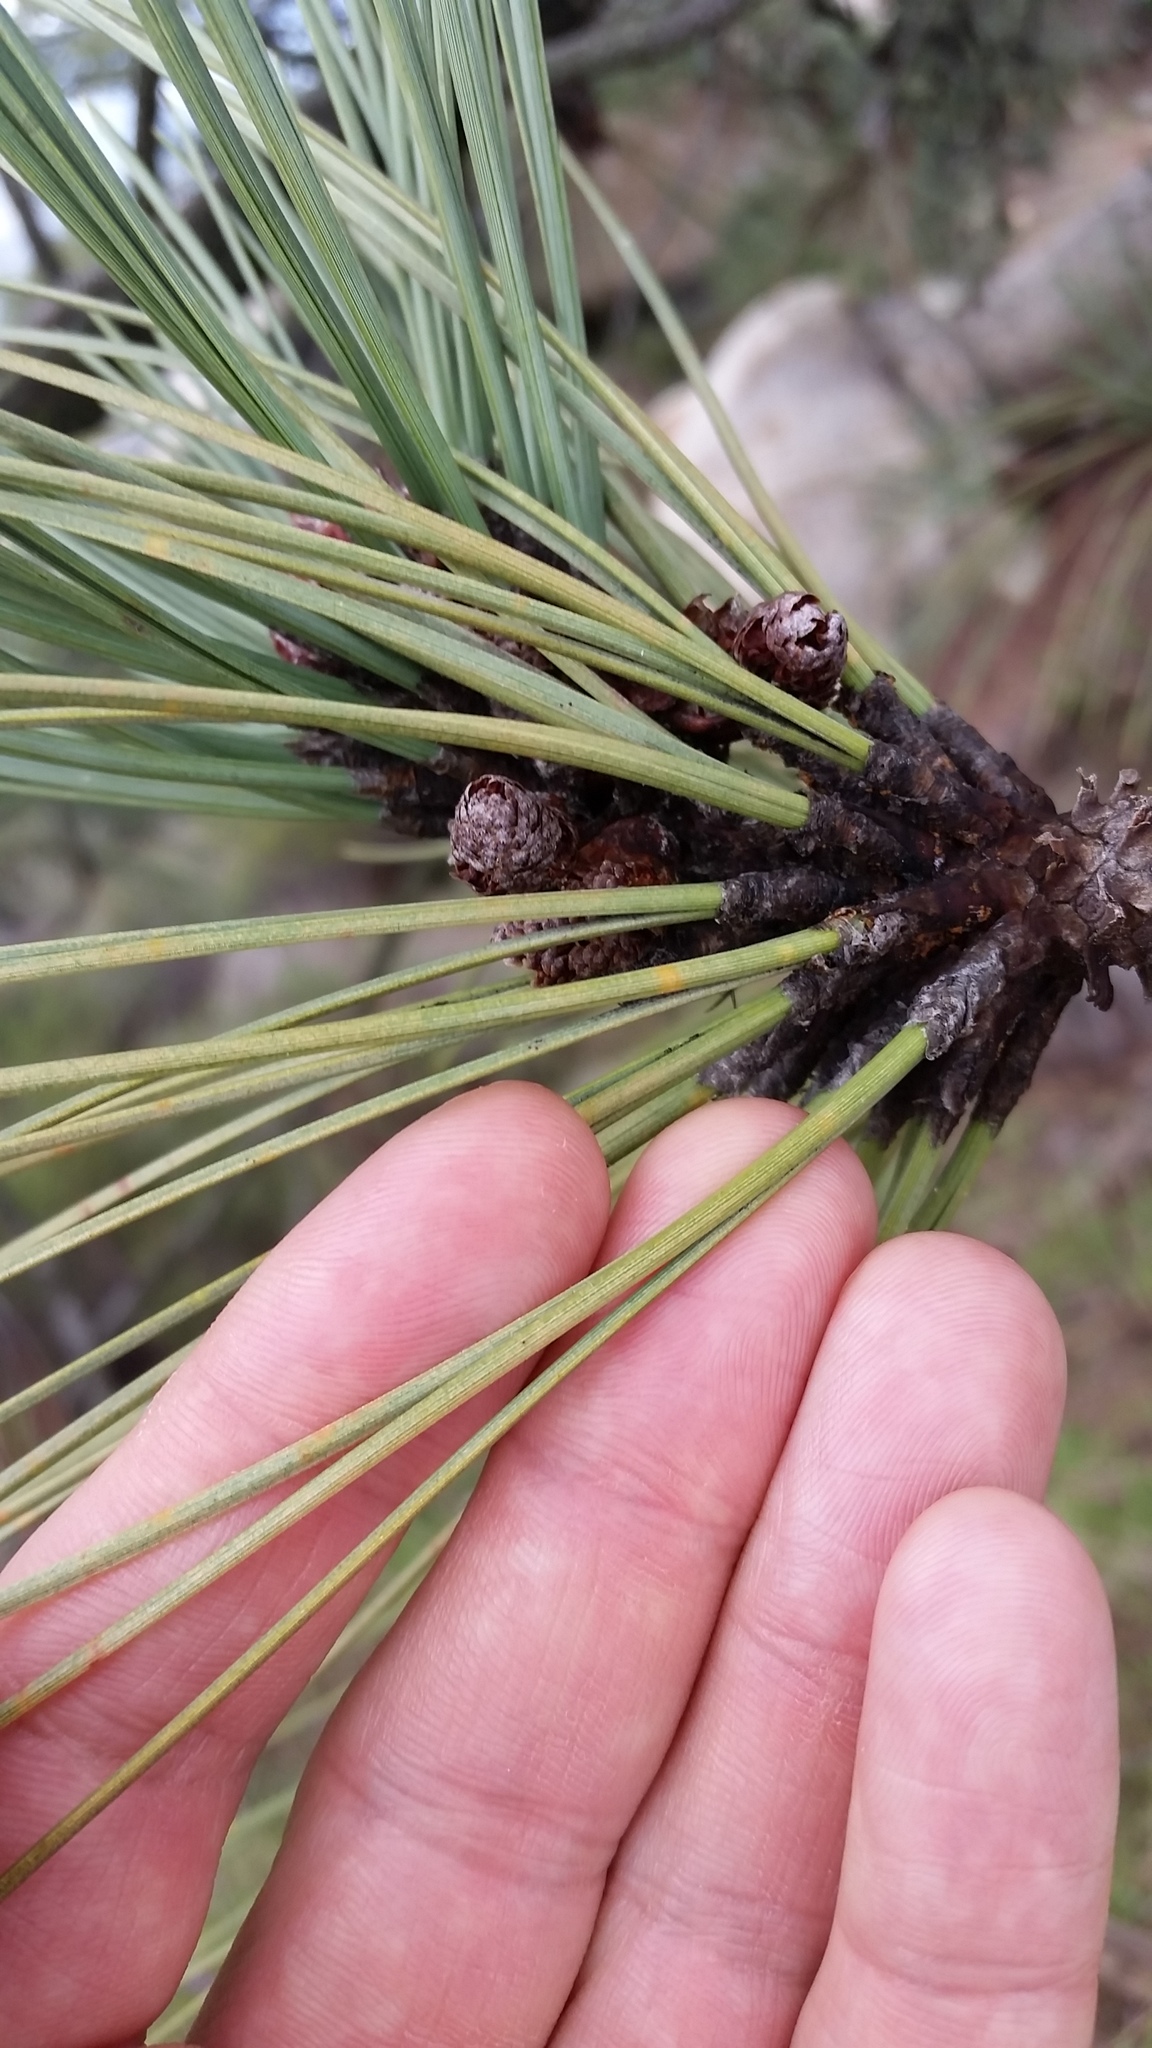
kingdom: Plantae
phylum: Tracheophyta
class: Pinopsida
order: Pinales
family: Pinaceae
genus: Pinus
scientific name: Pinus coulteri
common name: Coulter pine
